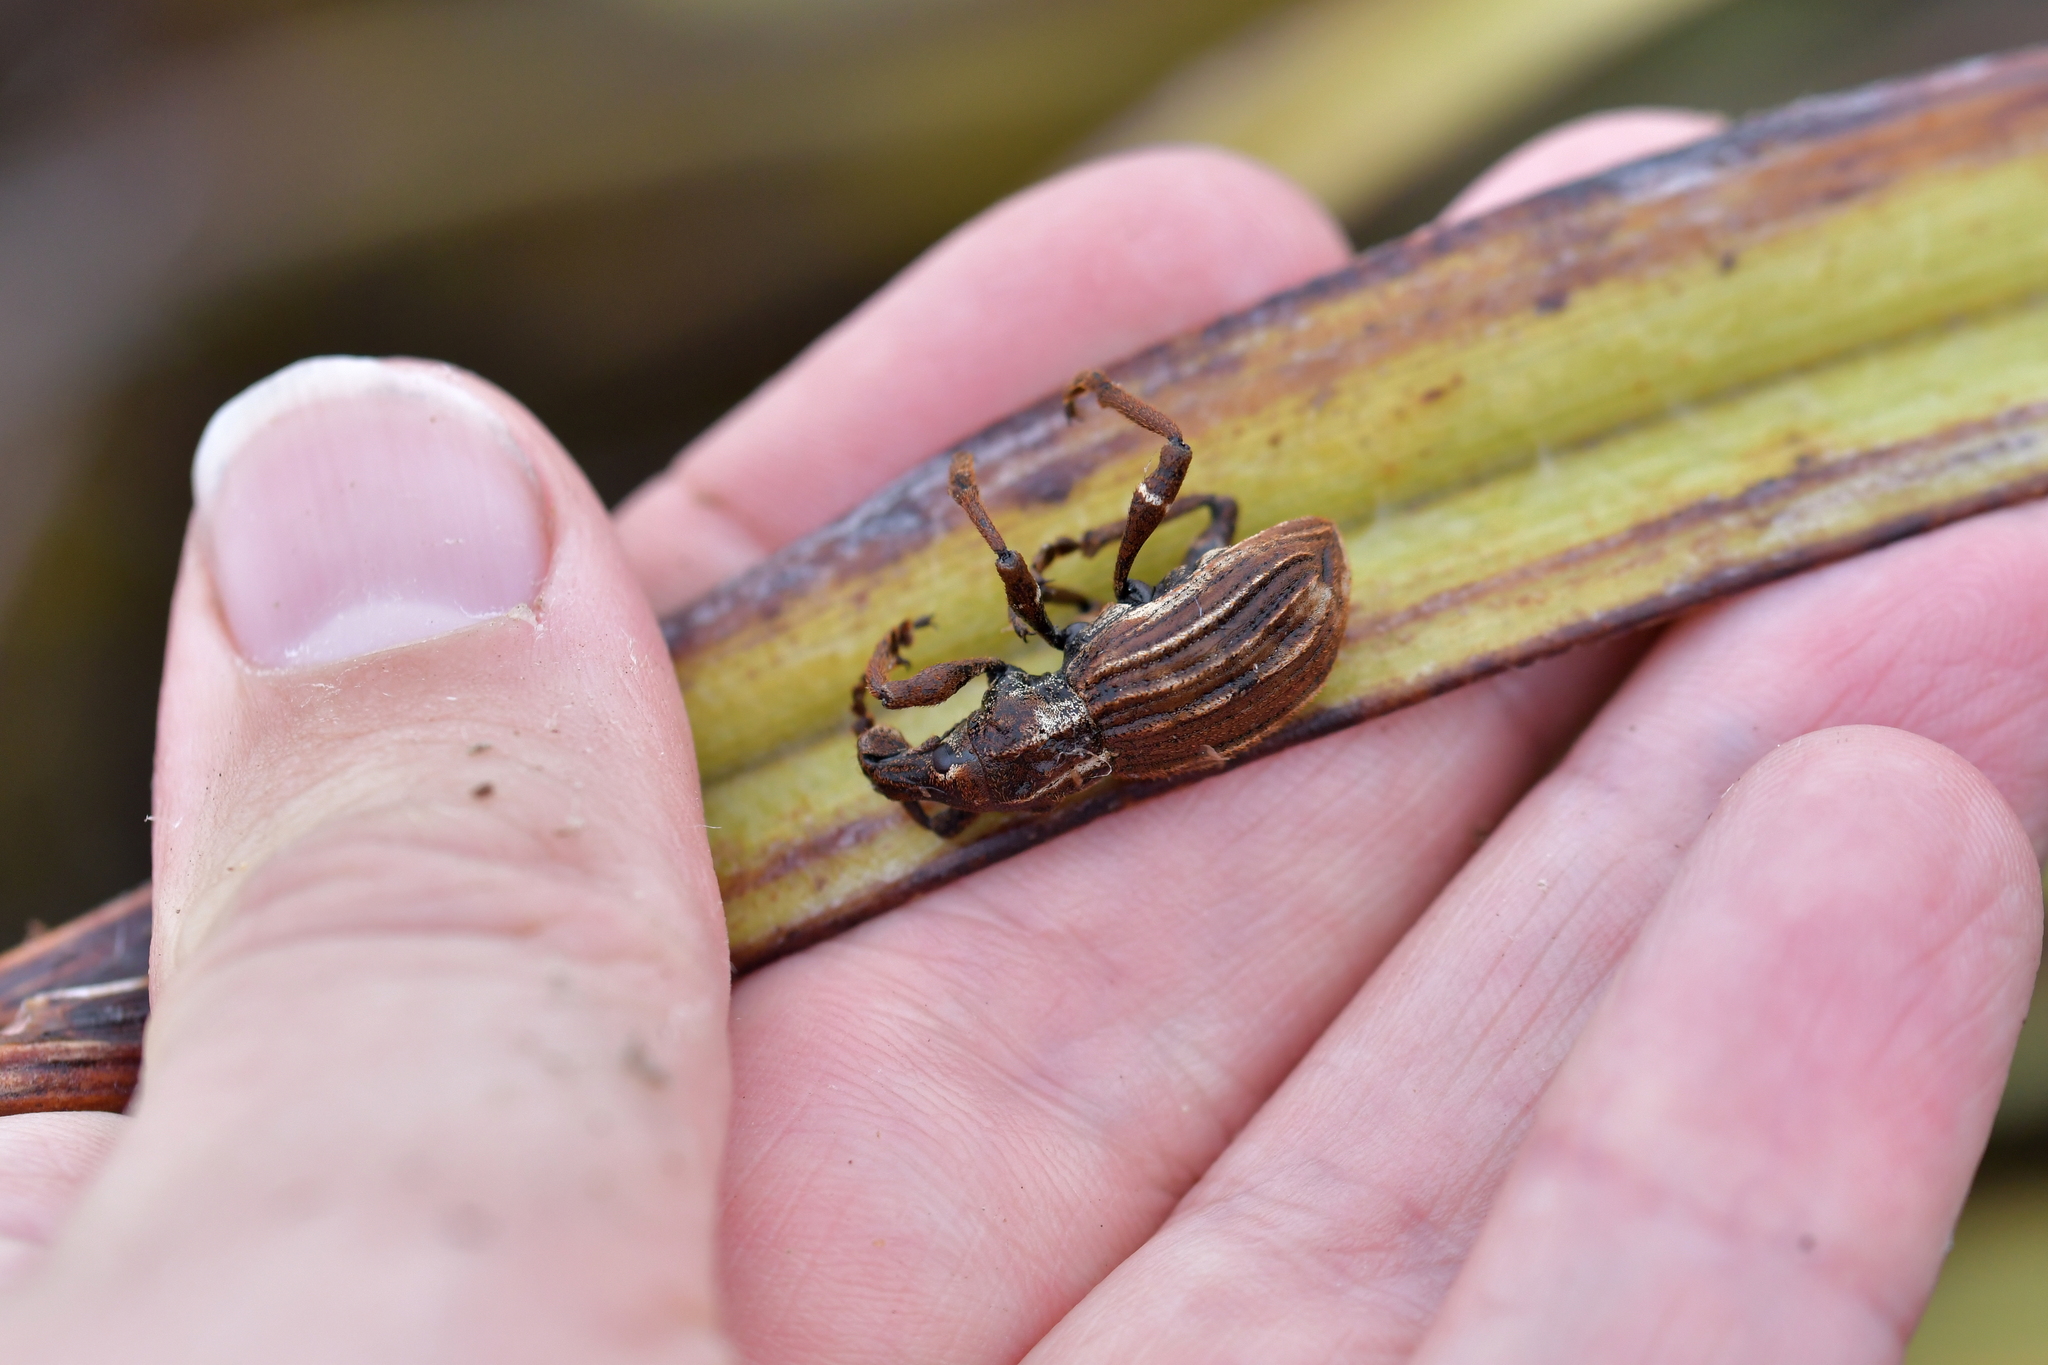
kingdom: Animalia
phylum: Arthropoda
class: Insecta
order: Coleoptera
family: Curculionidae
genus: Anagotus
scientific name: Anagotus
